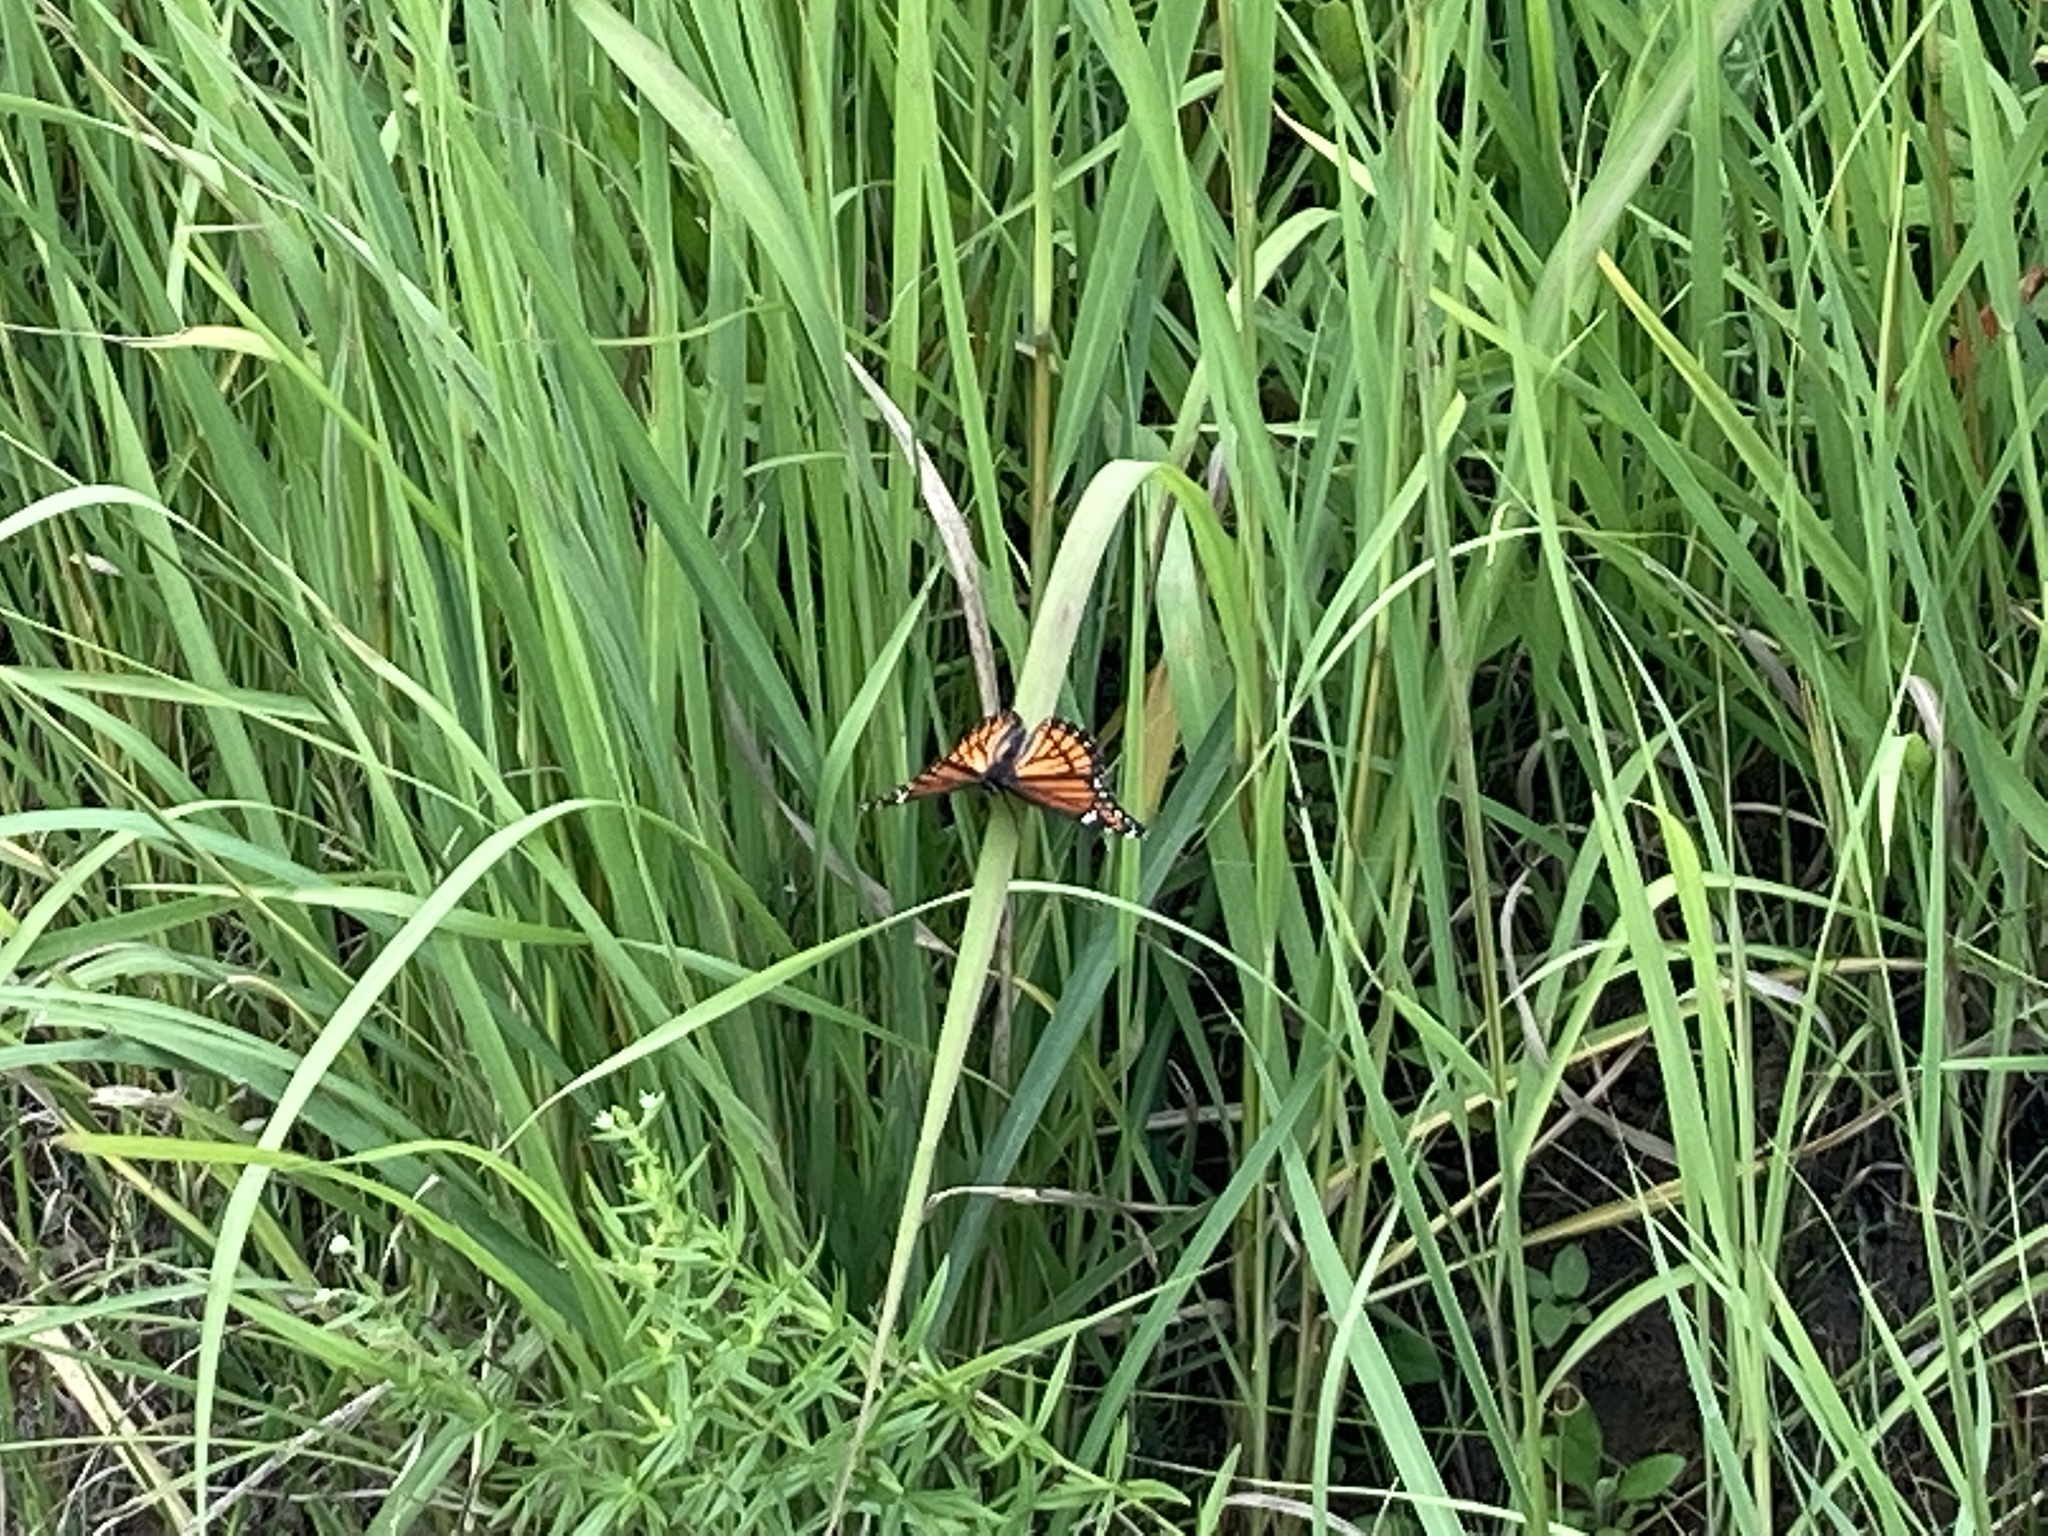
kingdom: Animalia
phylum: Arthropoda
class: Insecta
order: Lepidoptera
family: Nymphalidae
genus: Limenitis
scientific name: Limenitis archippus
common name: Viceroy
